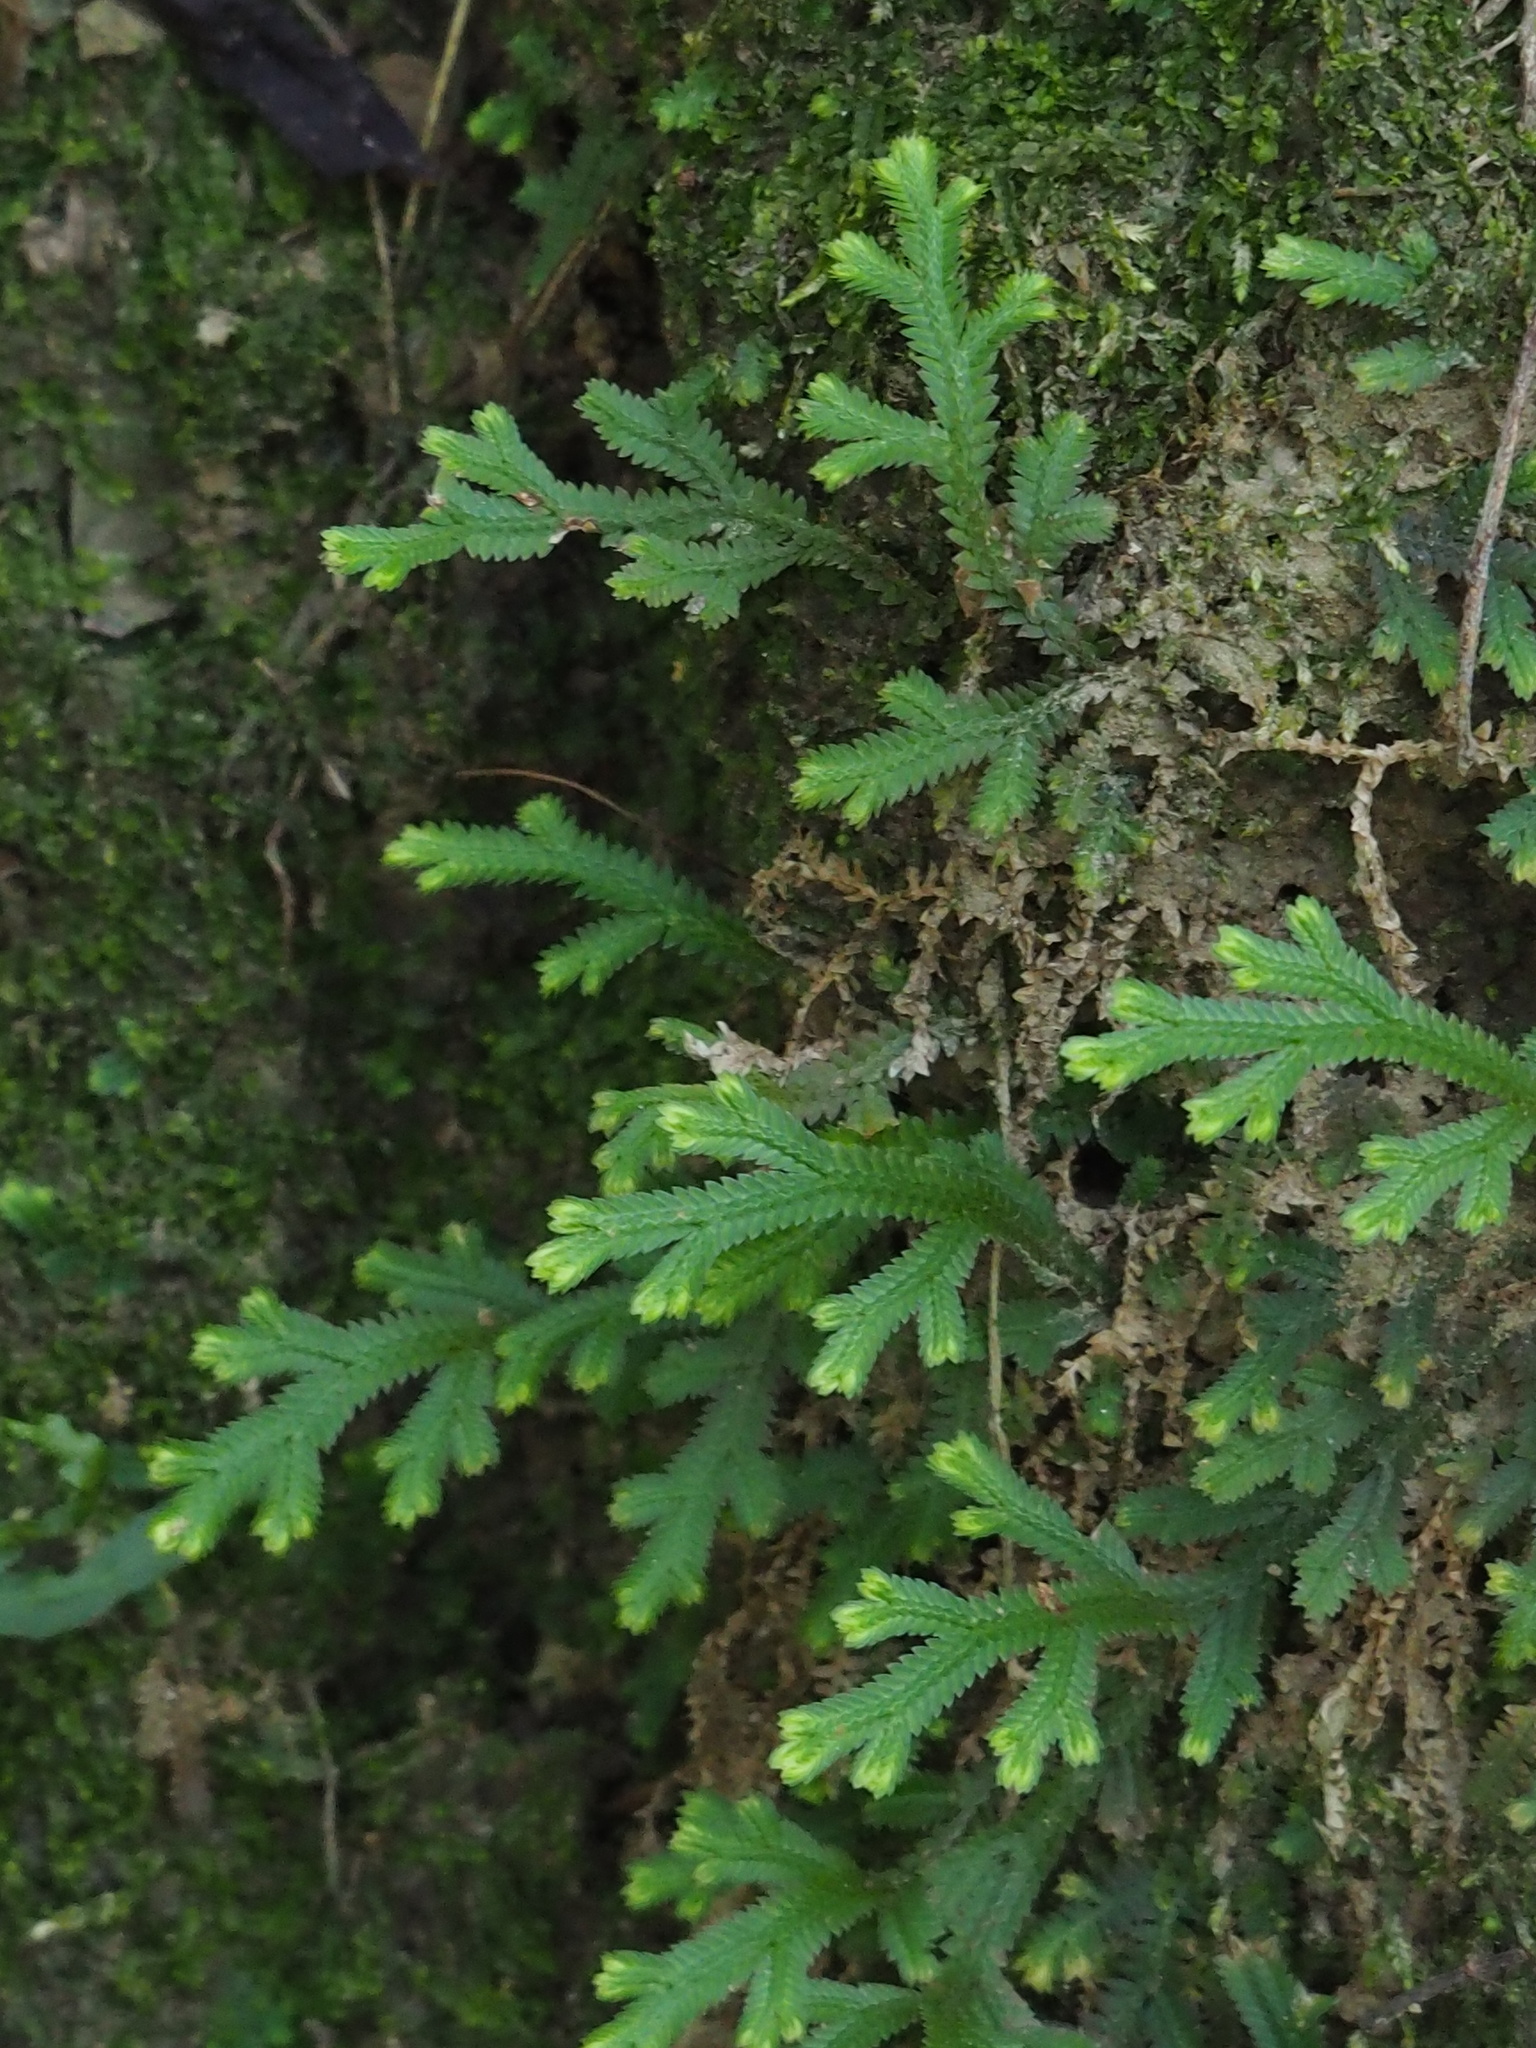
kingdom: Plantae
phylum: Tracheophyta
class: Lycopodiopsida
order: Selaginellales
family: Selaginellaceae
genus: Selaginella
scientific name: Selaginella doederleinii
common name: Greater selaginella
